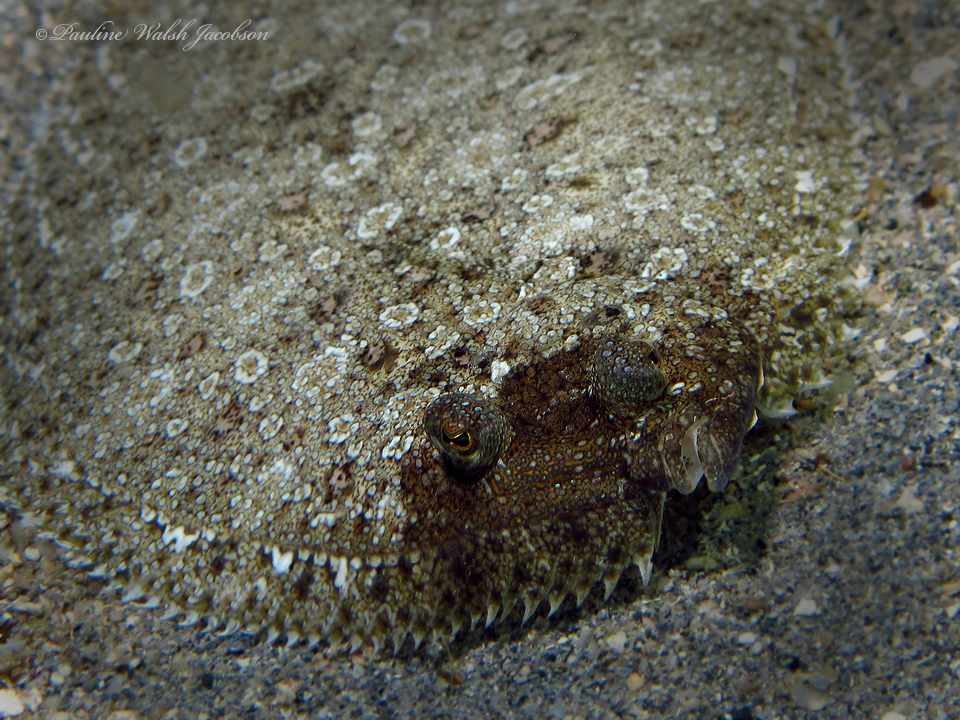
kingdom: Animalia
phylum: Chordata
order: Pleuronectiformes
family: Bothidae
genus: Bothus
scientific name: Bothus maculiferus
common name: Mottled flounder
